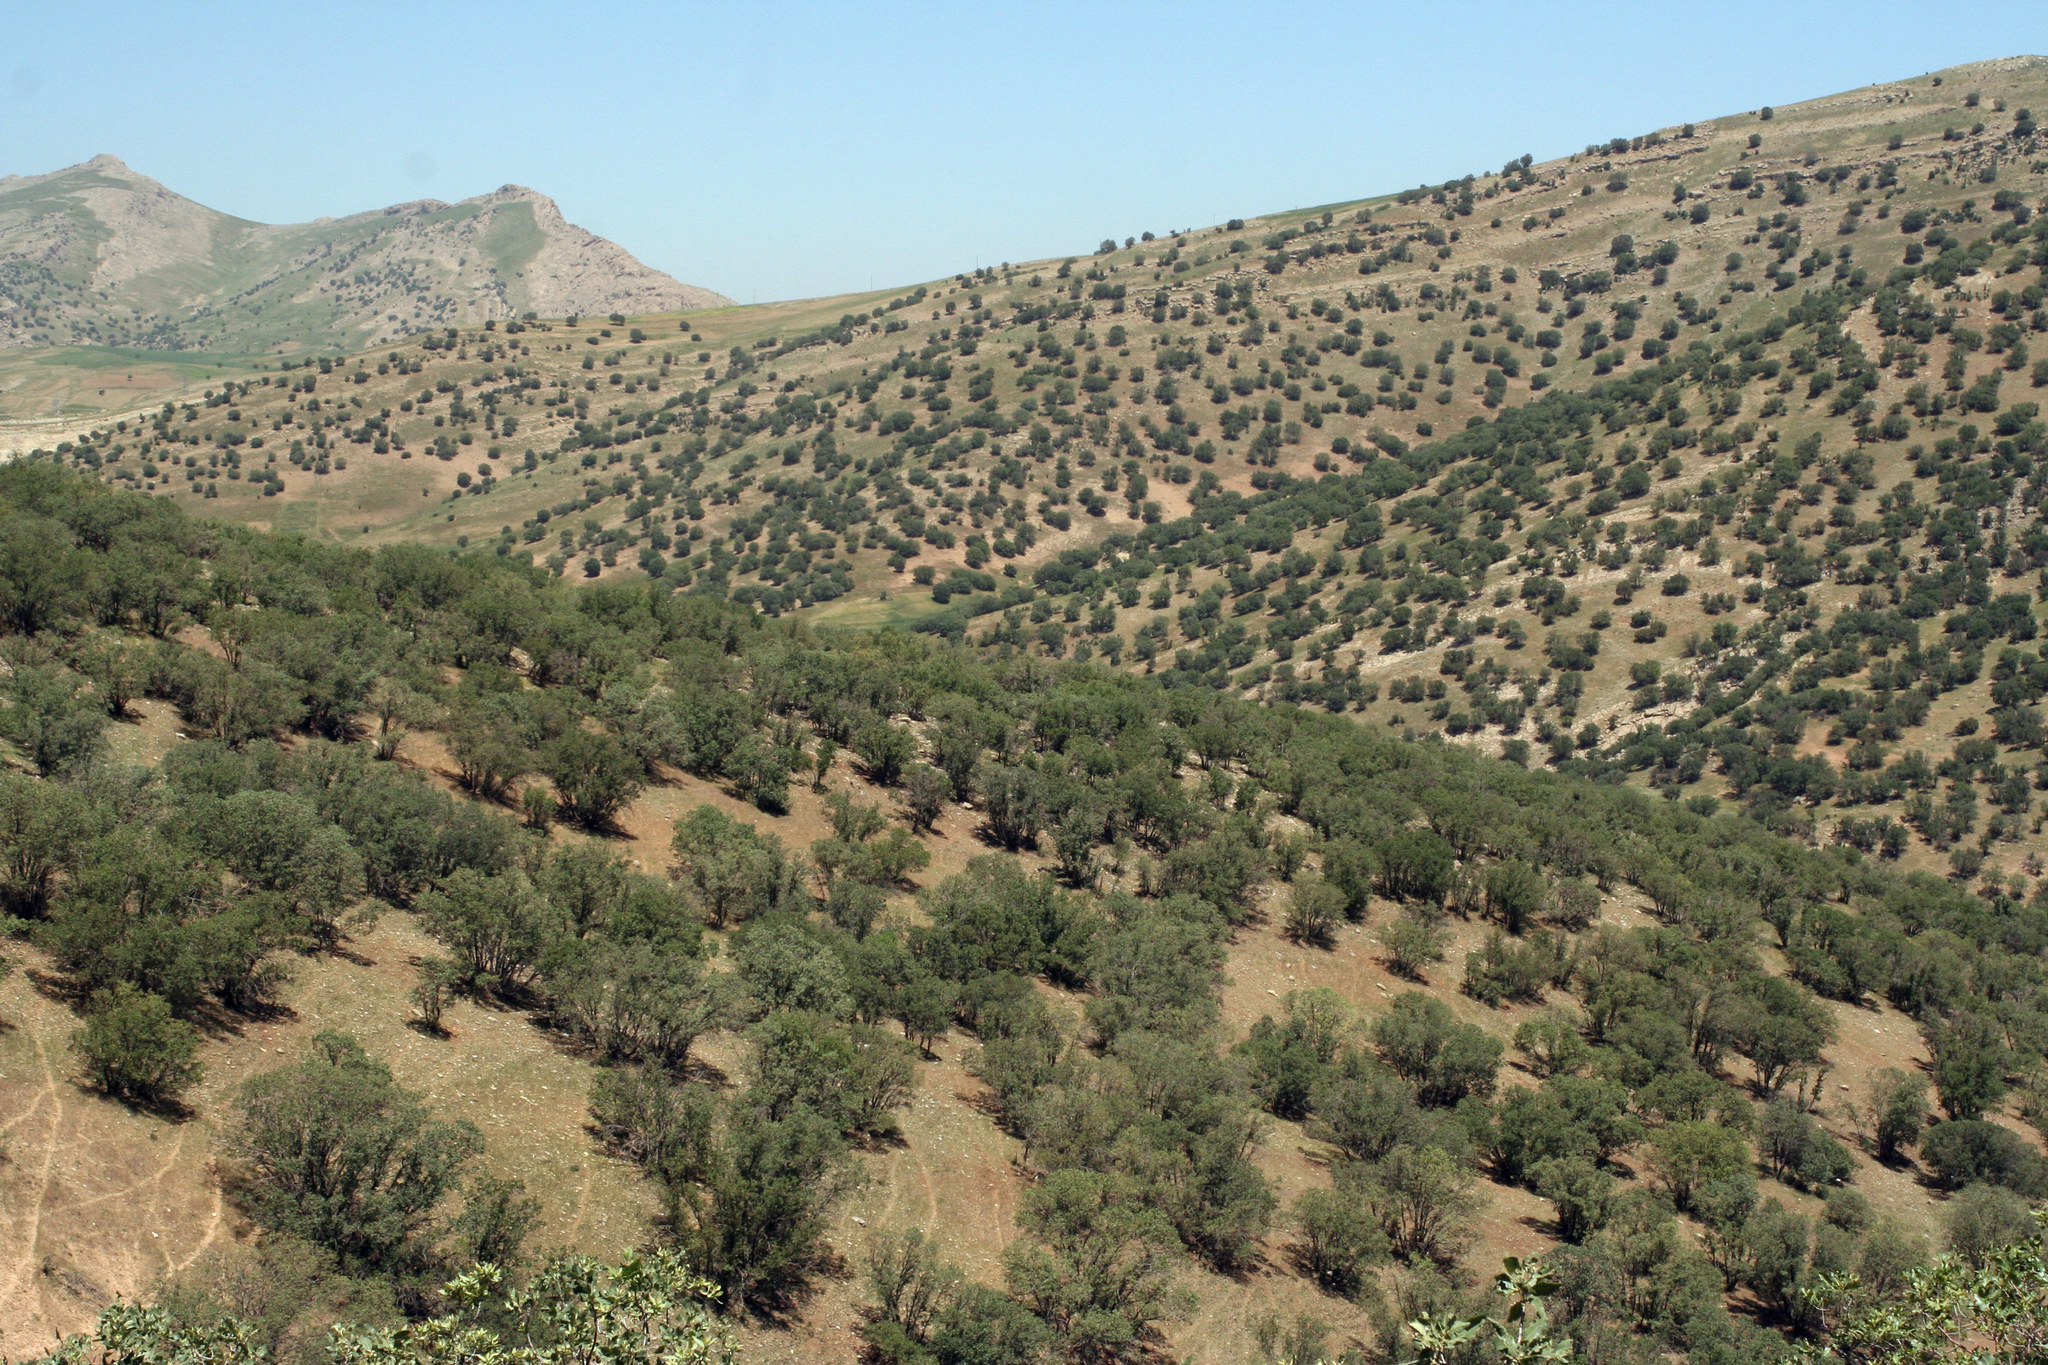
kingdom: Plantae
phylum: Tracheophyta
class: Magnoliopsida
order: Fagales
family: Fagaceae
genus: Quercus
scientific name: Quercus brantii
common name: Brant oak
